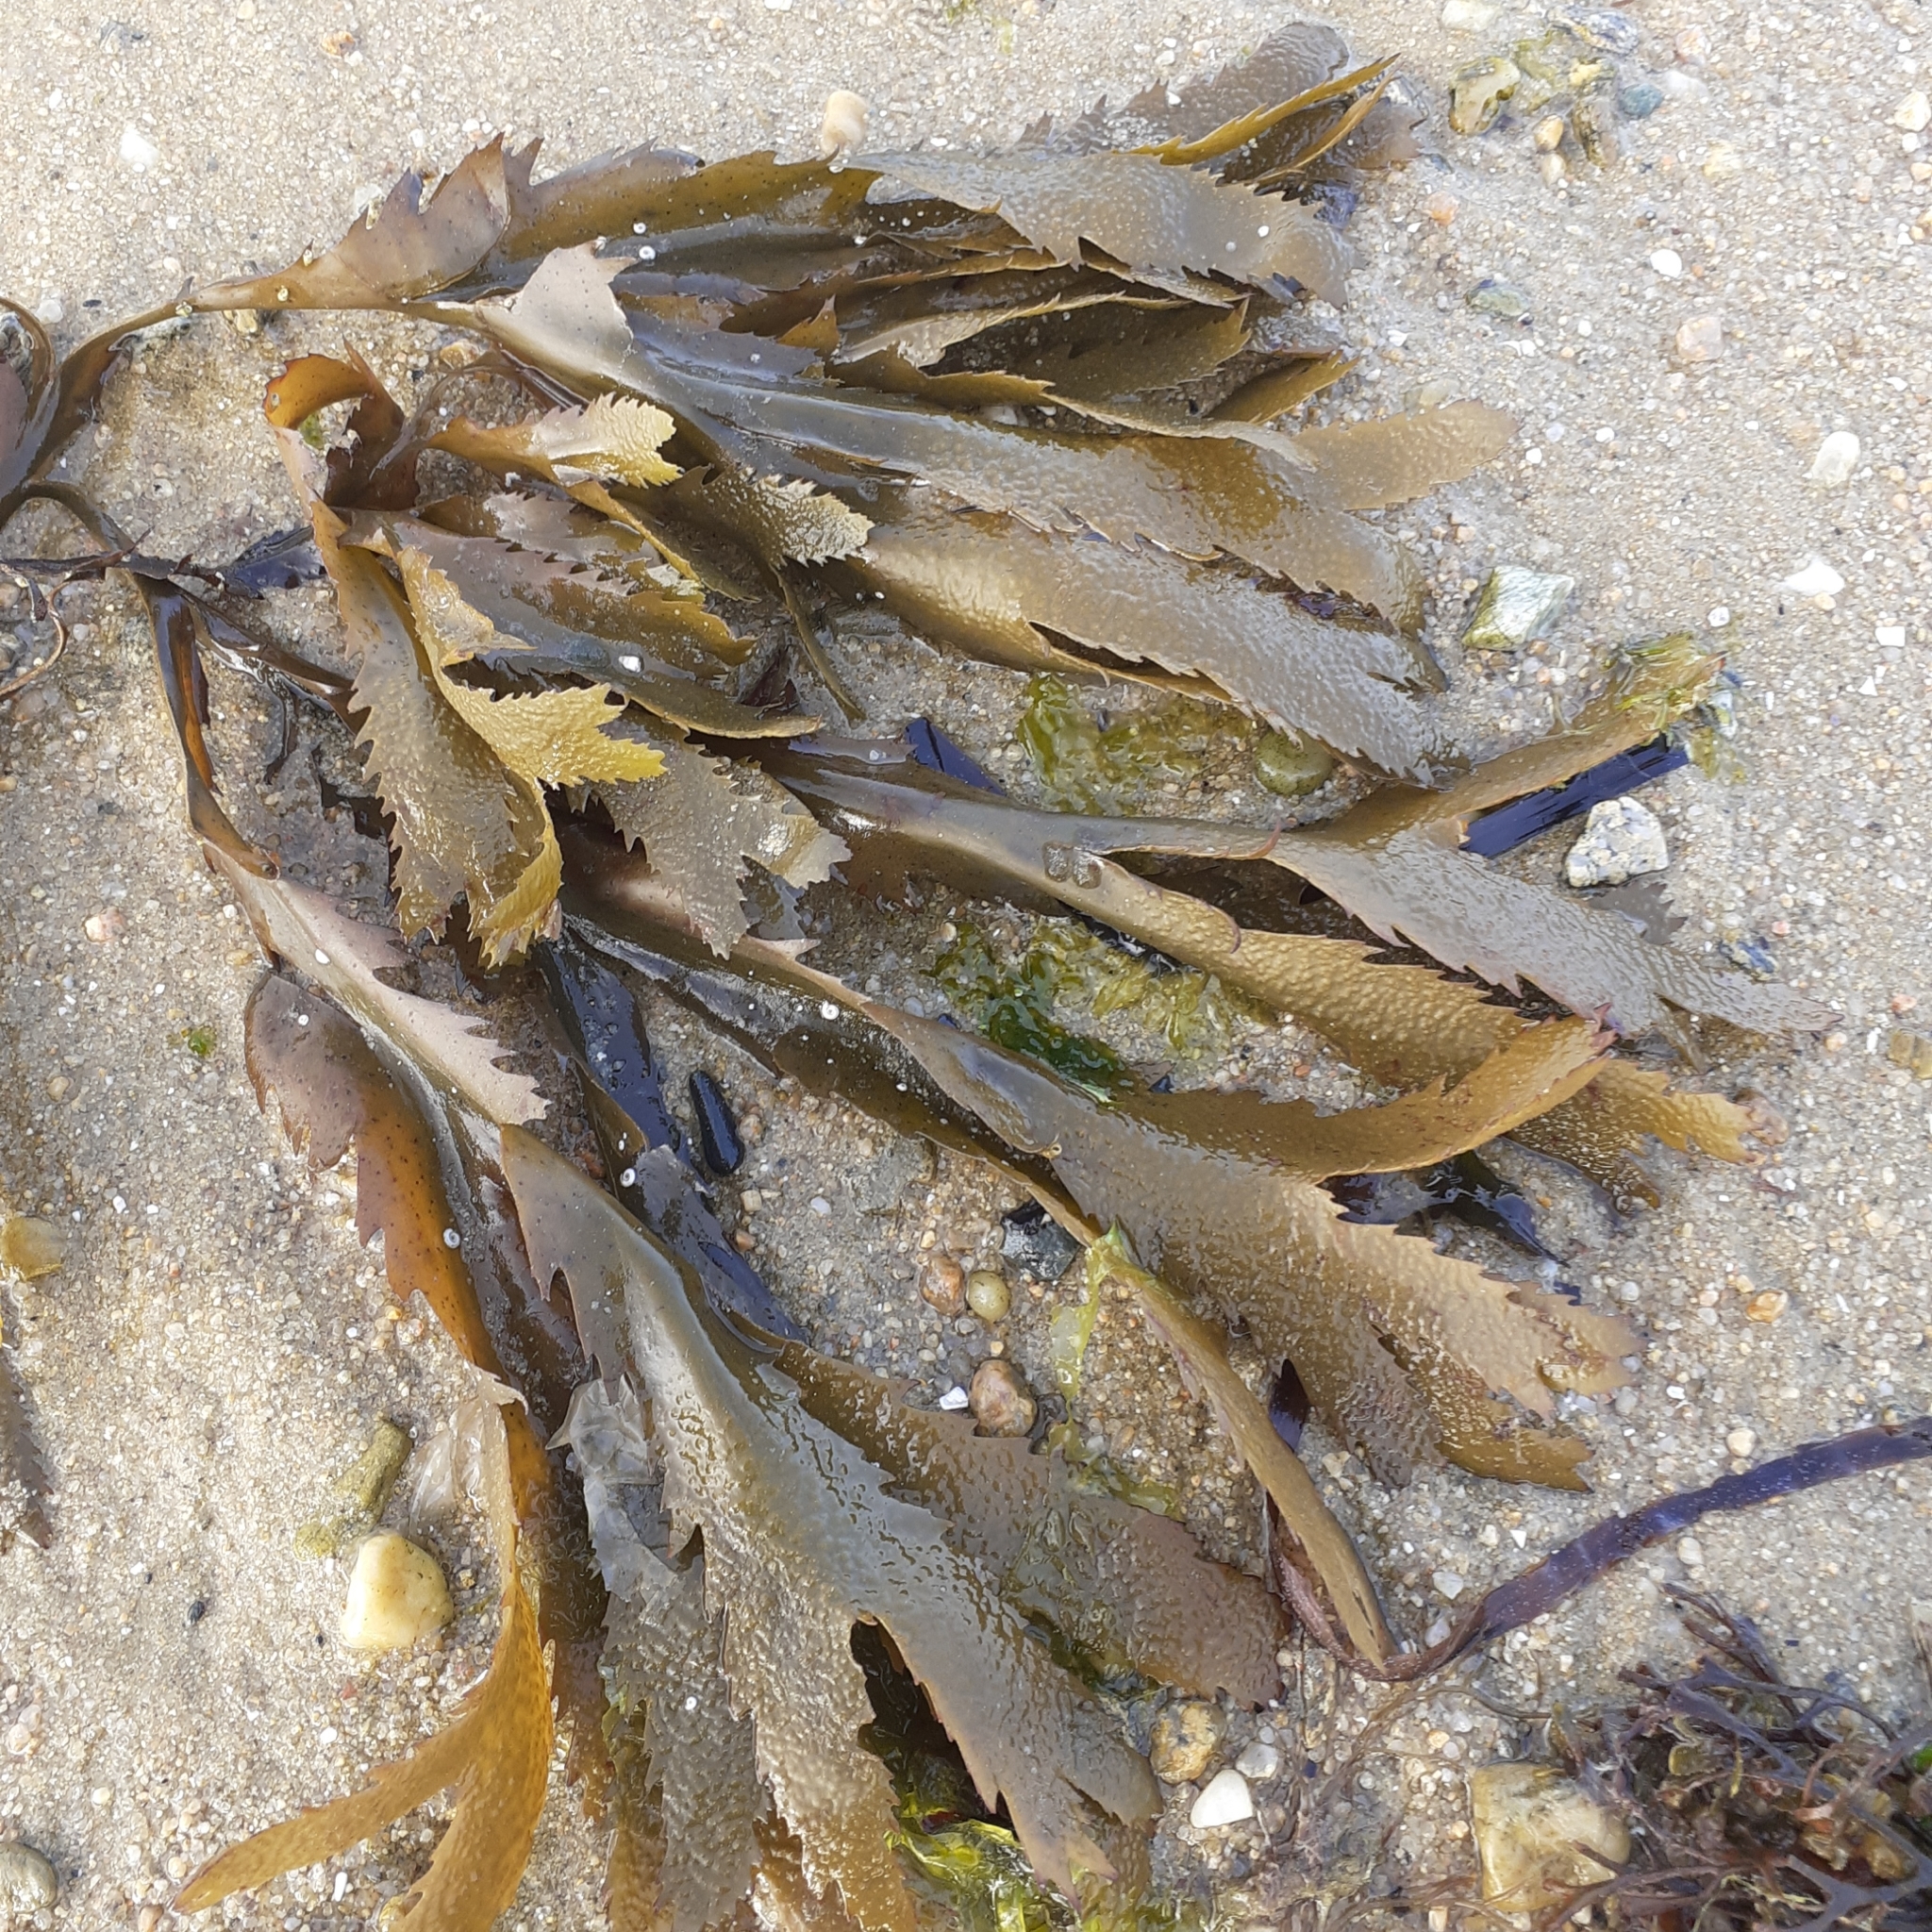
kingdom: Chromista
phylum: Ochrophyta
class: Phaeophyceae
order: Fucales
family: Fucaceae
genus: Fucus
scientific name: Fucus serratus
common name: Toothed wrack
